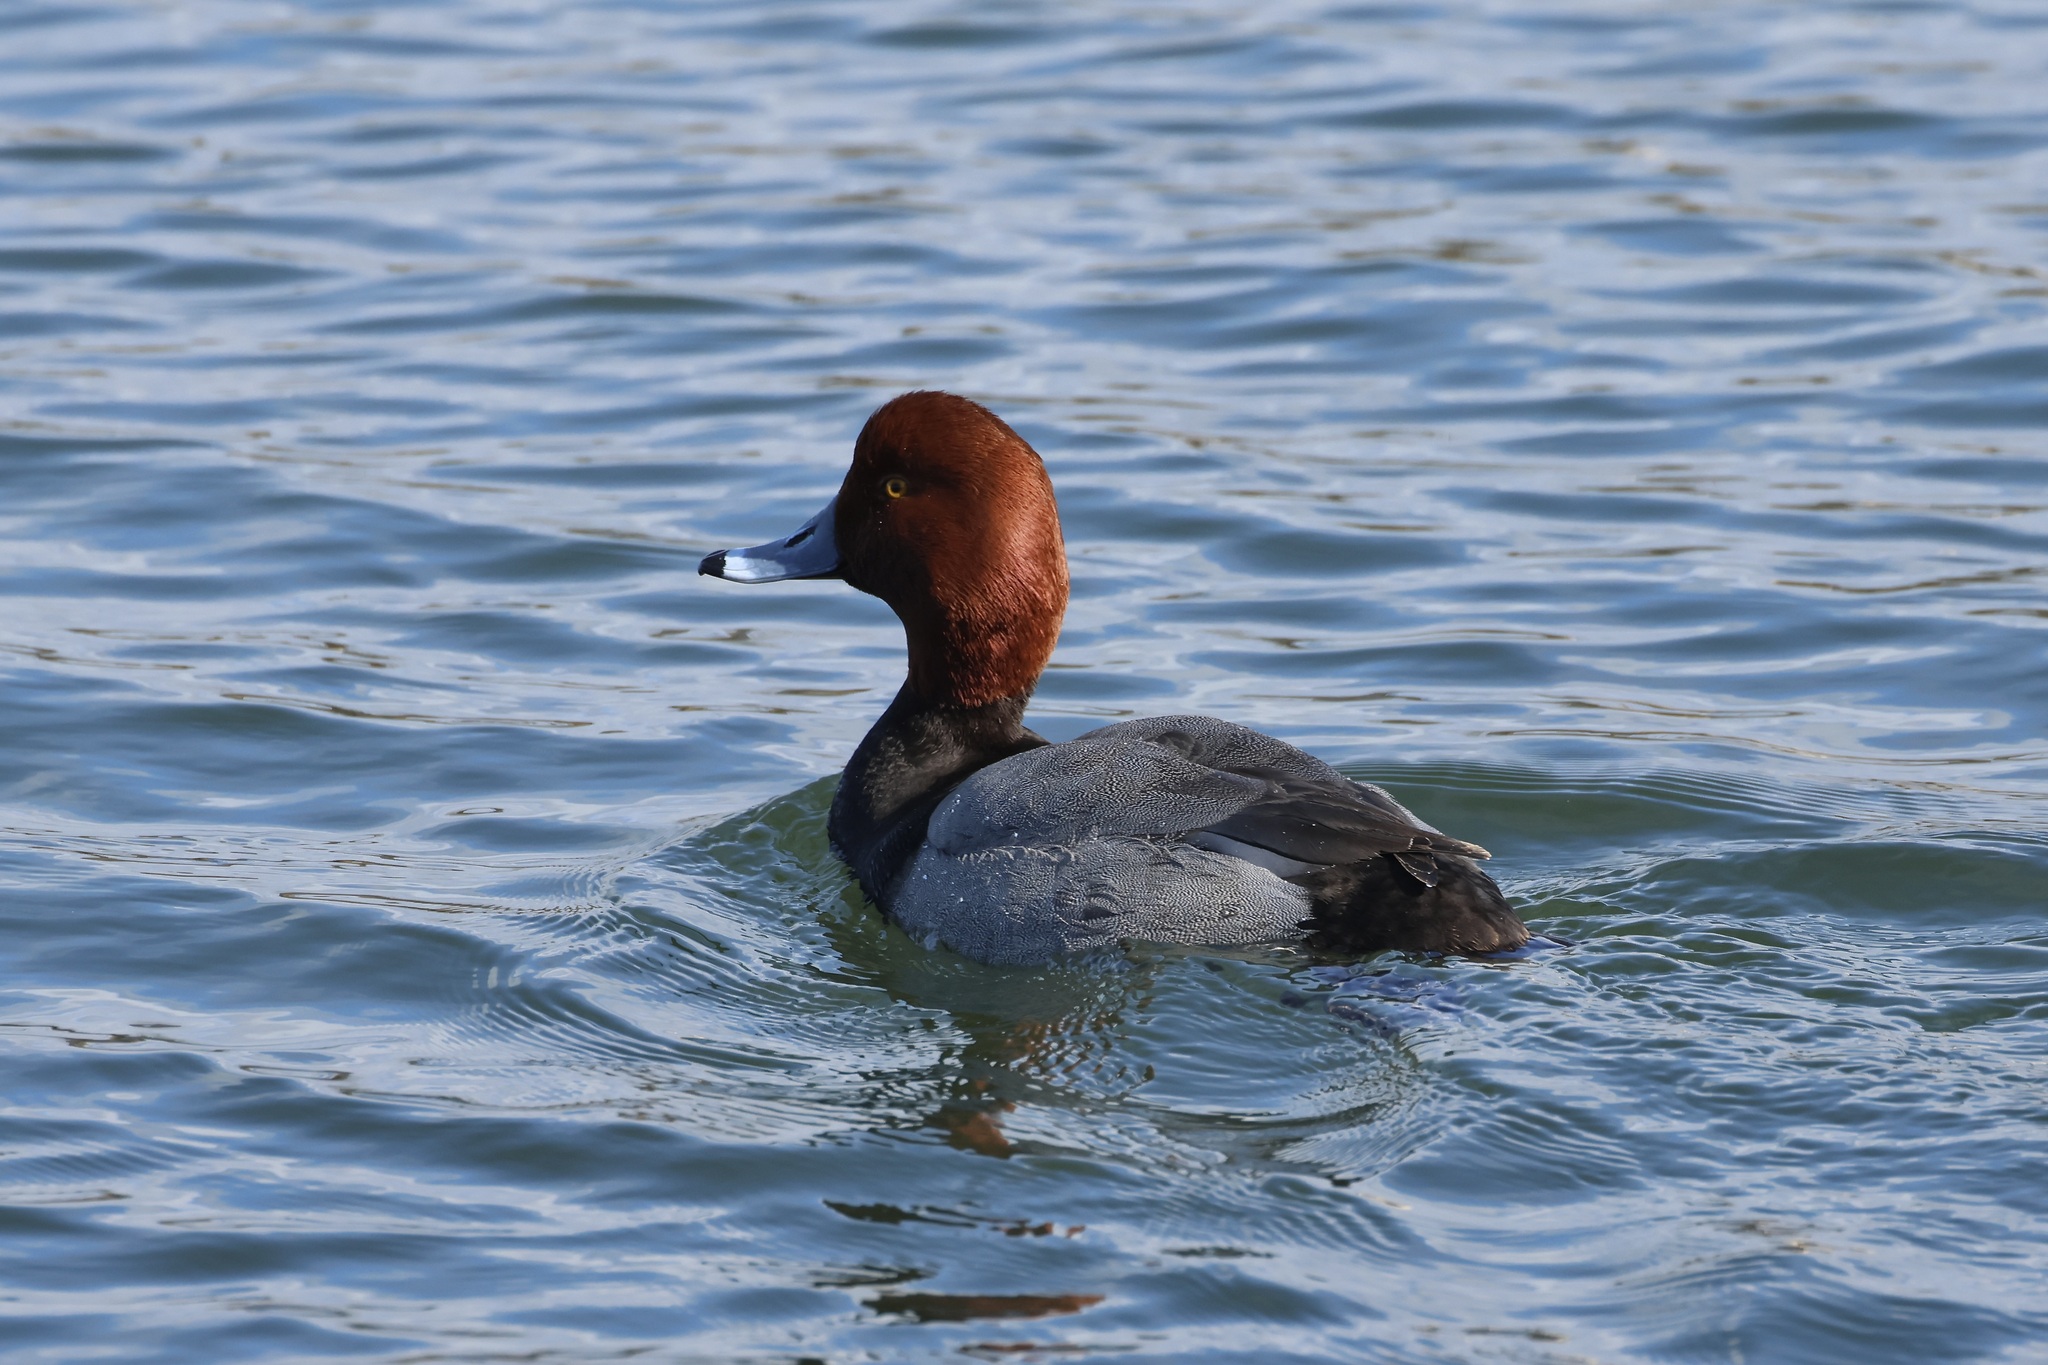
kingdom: Animalia
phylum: Chordata
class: Aves
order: Anseriformes
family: Anatidae
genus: Aythya
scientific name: Aythya americana
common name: Redhead
